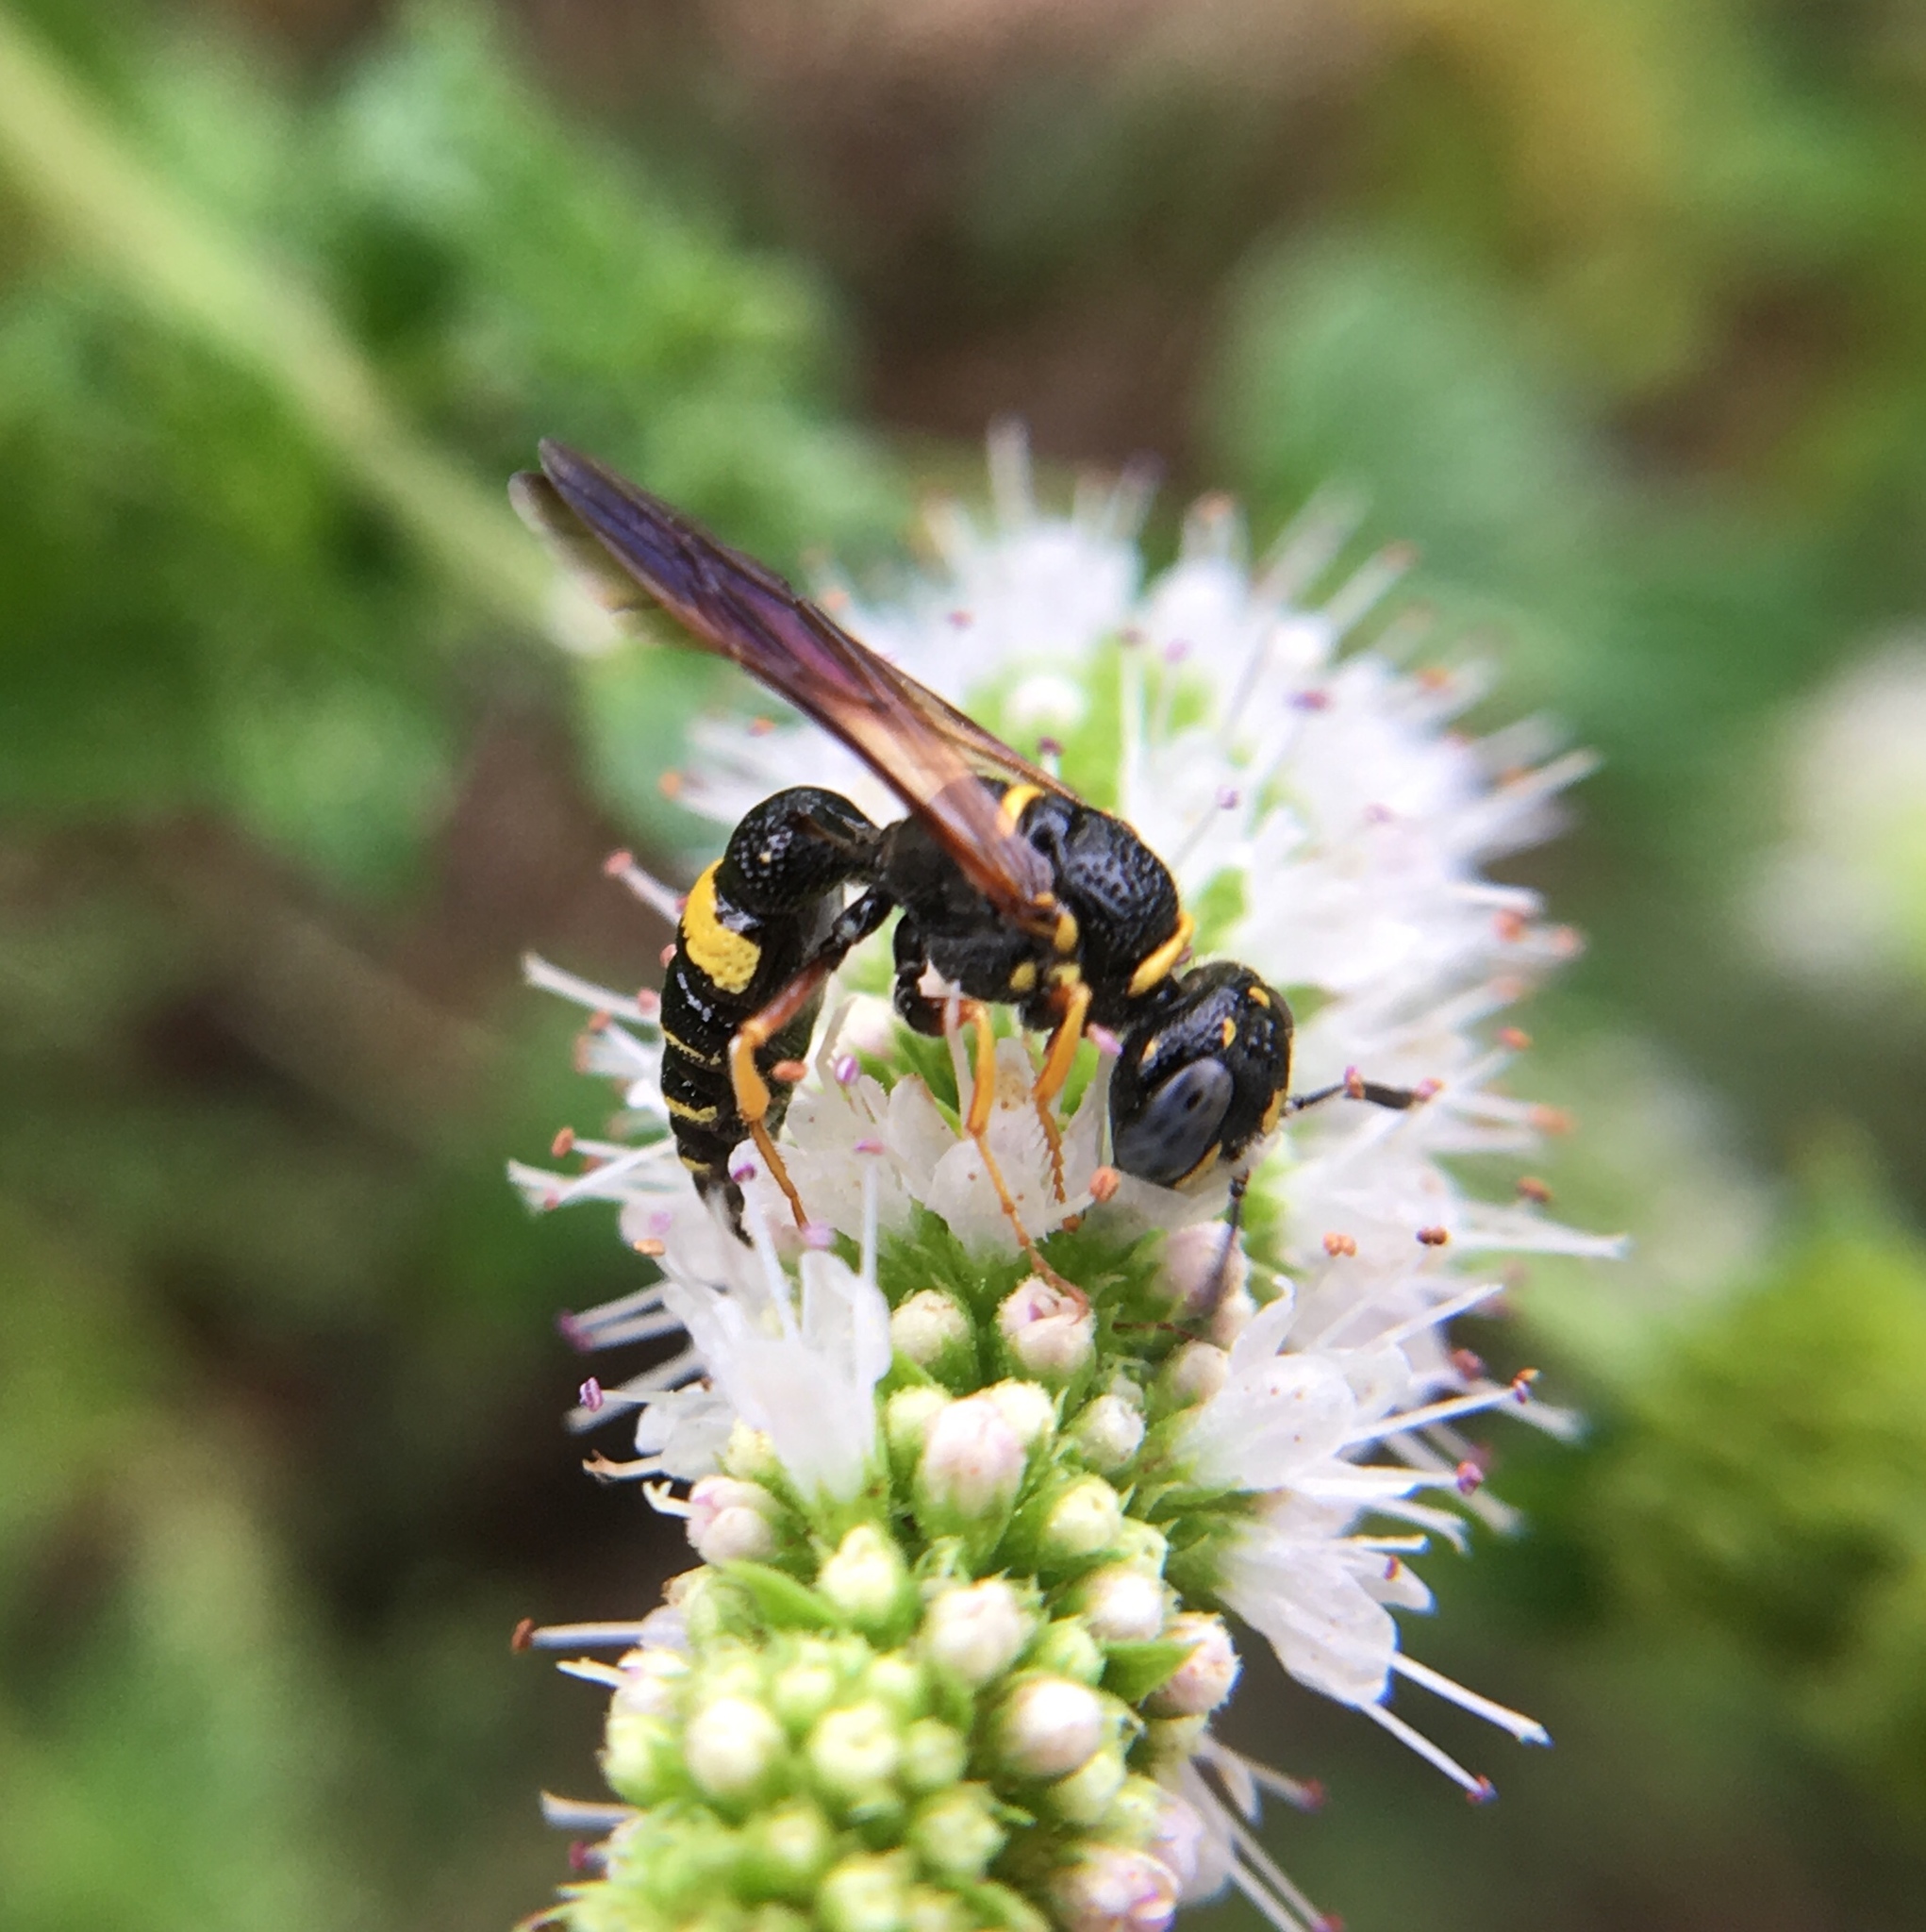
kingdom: Animalia
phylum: Arthropoda
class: Insecta
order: Hymenoptera
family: Crabronidae
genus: Philanthus
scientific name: Philanthus gibbosus
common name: Humped beewolf
